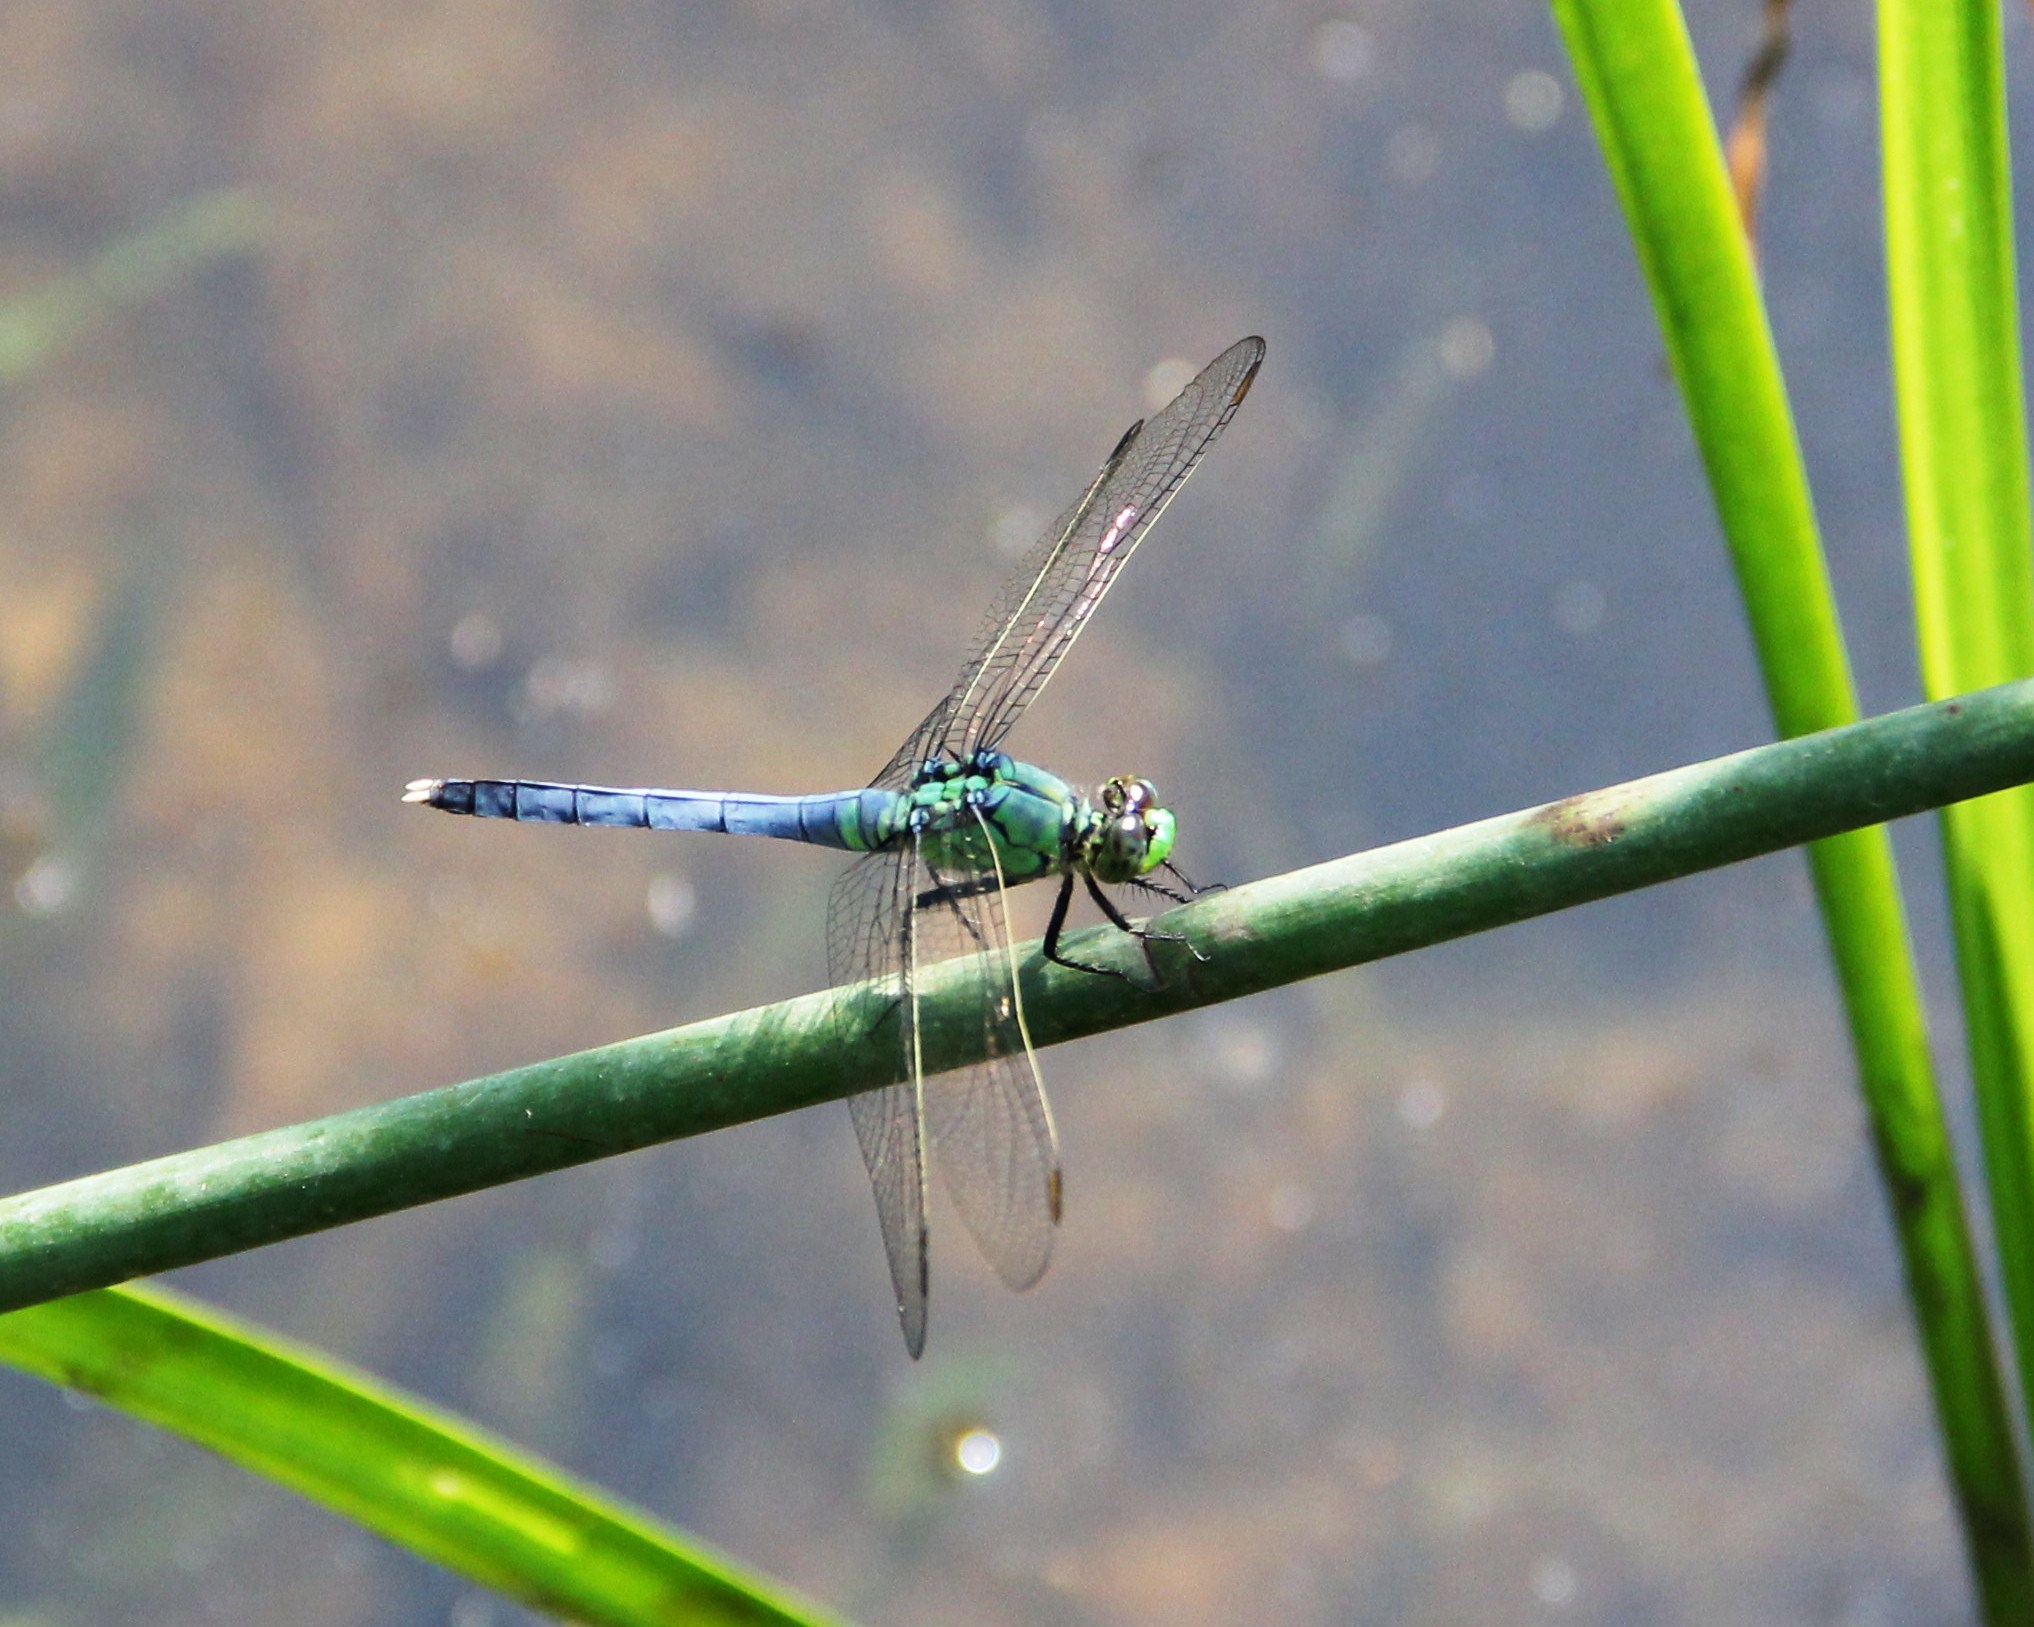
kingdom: Animalia
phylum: Arthropoda
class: Insecta
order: Odonata
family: Libellulidae
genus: Erythemis
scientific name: Erythemis simplicicollis
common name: Eastern pondhawk
